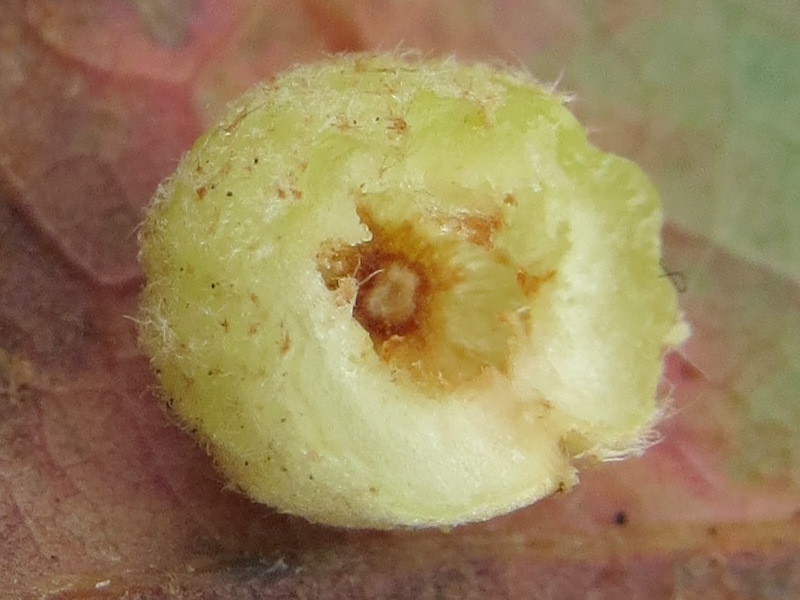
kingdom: Animalia
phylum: Arthropoda
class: Insecta
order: Hymenoptera
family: Cynipidae
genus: Philonix
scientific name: Philonix fulvicollis
